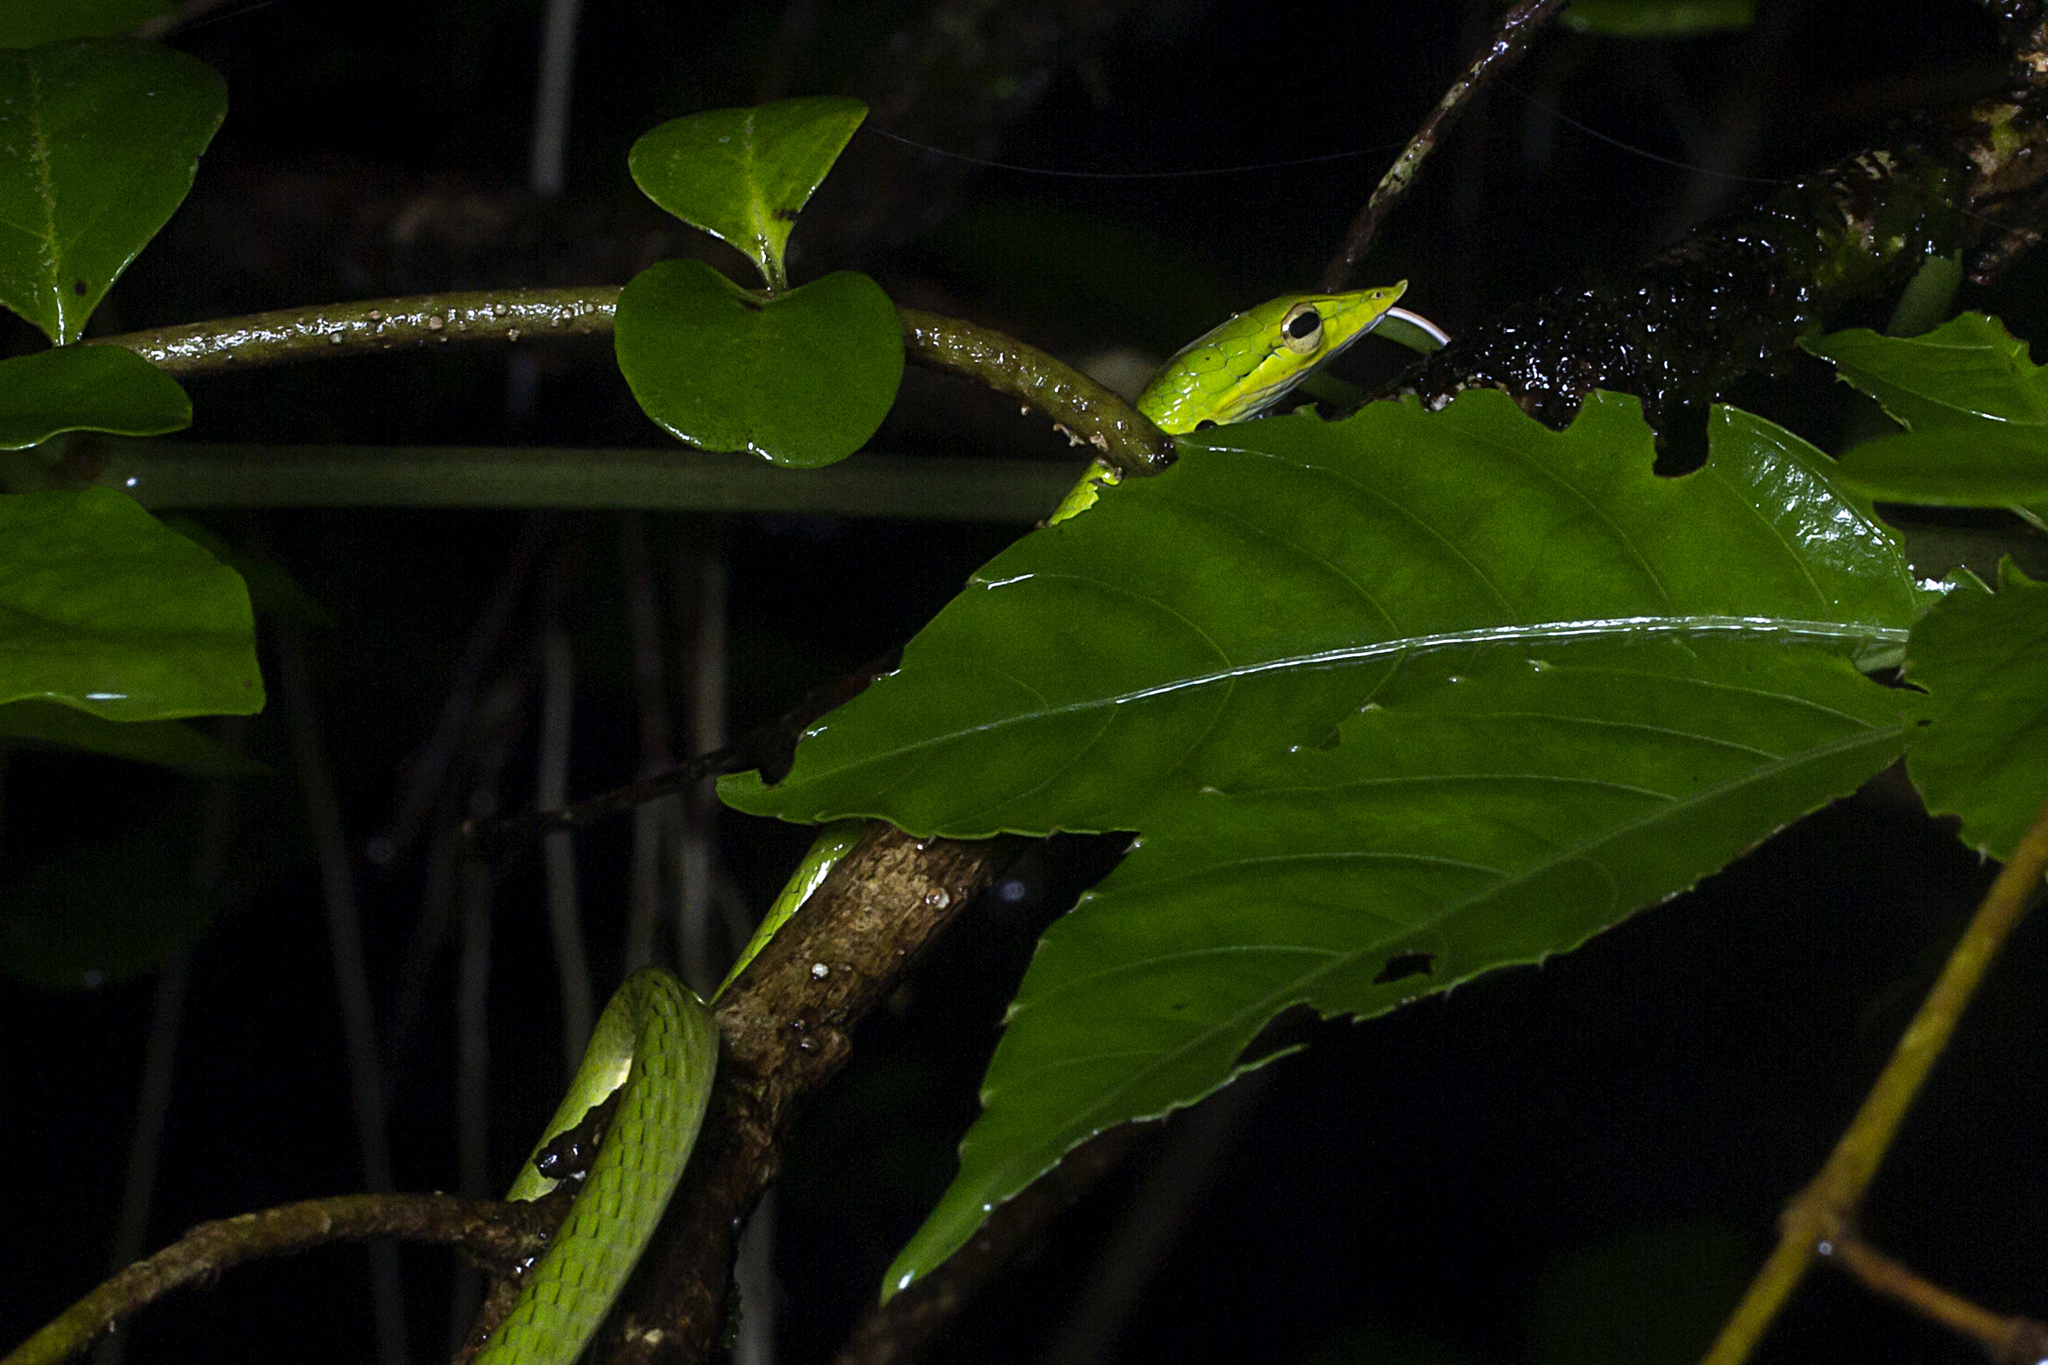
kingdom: Animalia
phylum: Chordata
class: Squamata
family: Colubridae
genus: Ahaetulla
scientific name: Ahaetulla borealis
